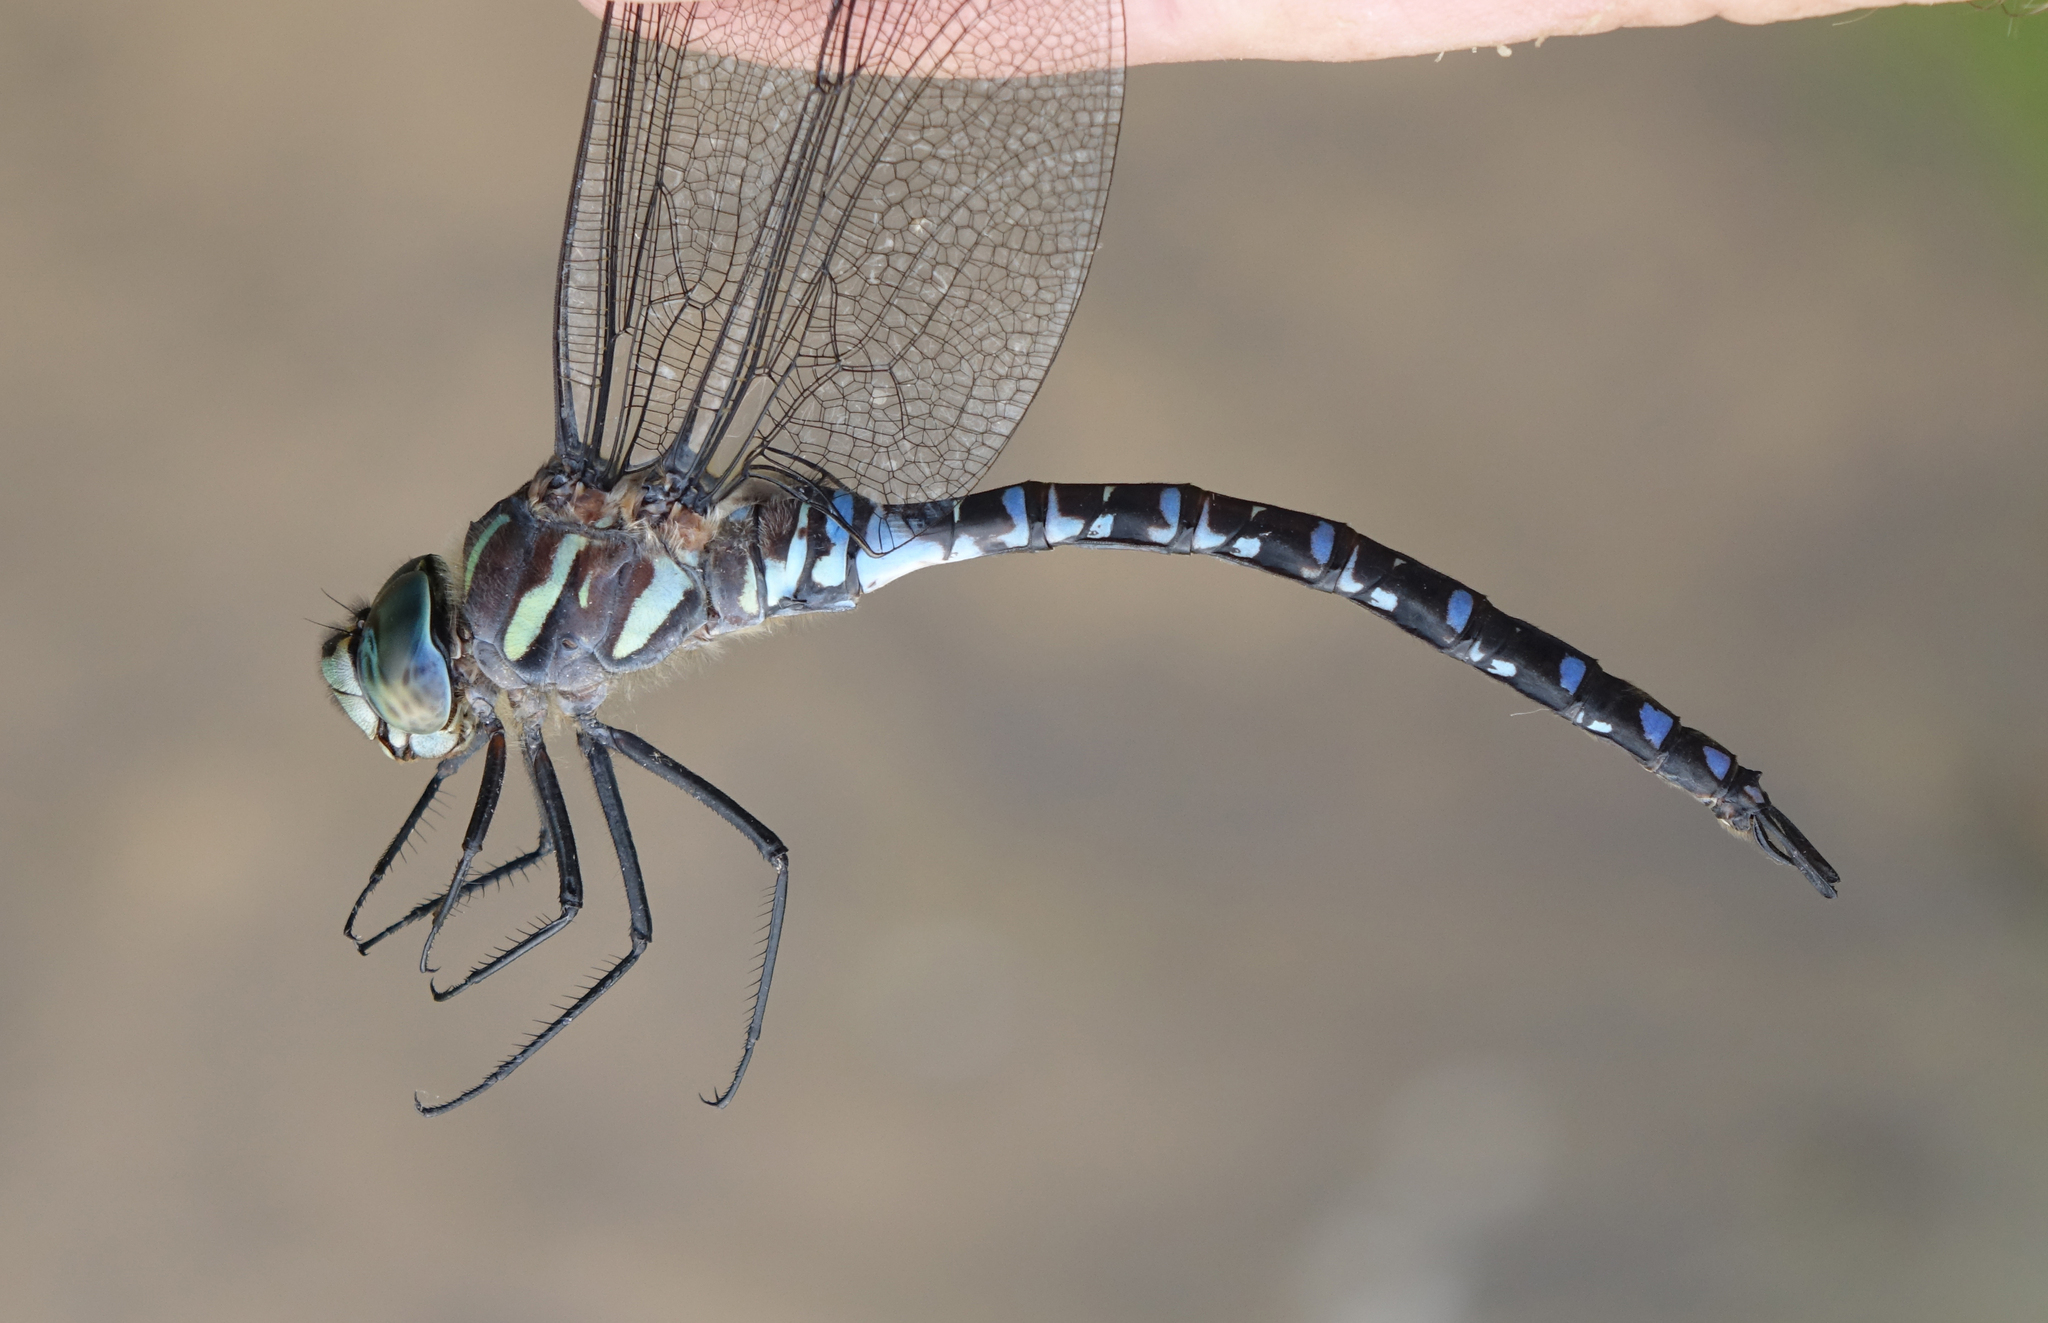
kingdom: Animalia
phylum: Arthropoda
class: Insecta
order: Odonata
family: Aeshnidae
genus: Aeshna
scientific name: Aeshna crenata
